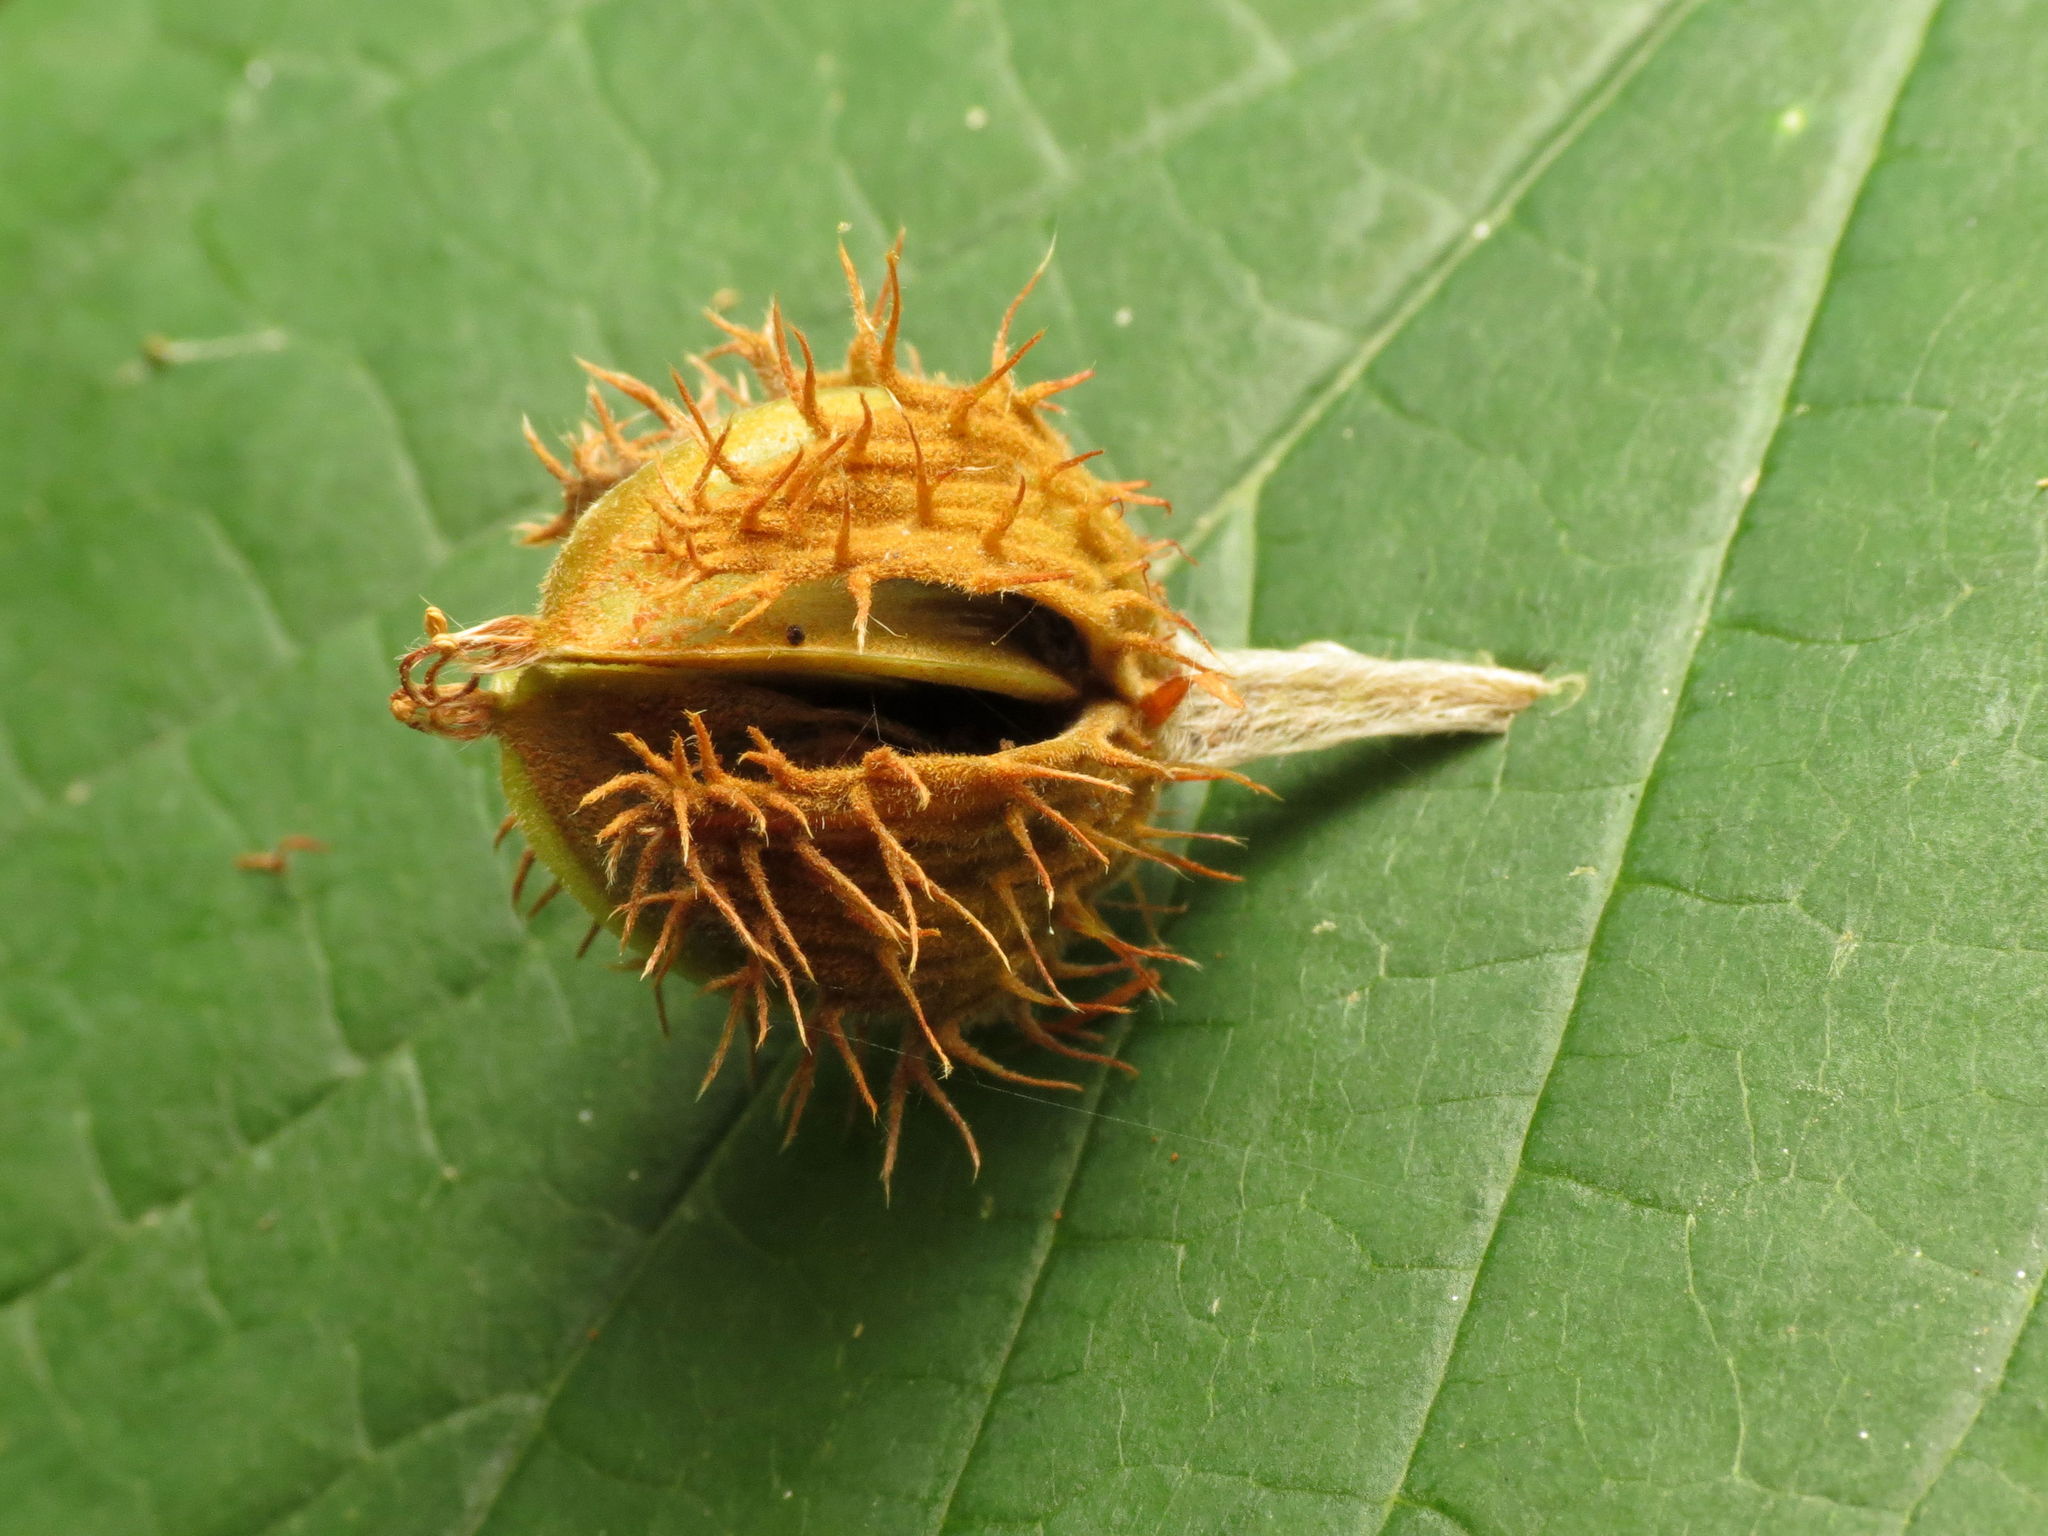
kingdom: Plantae
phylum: Tracheophyta
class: Magnoliopsida
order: Fagales
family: Fagaceae
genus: Fagus
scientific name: Fagus grandifolia
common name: American beech
